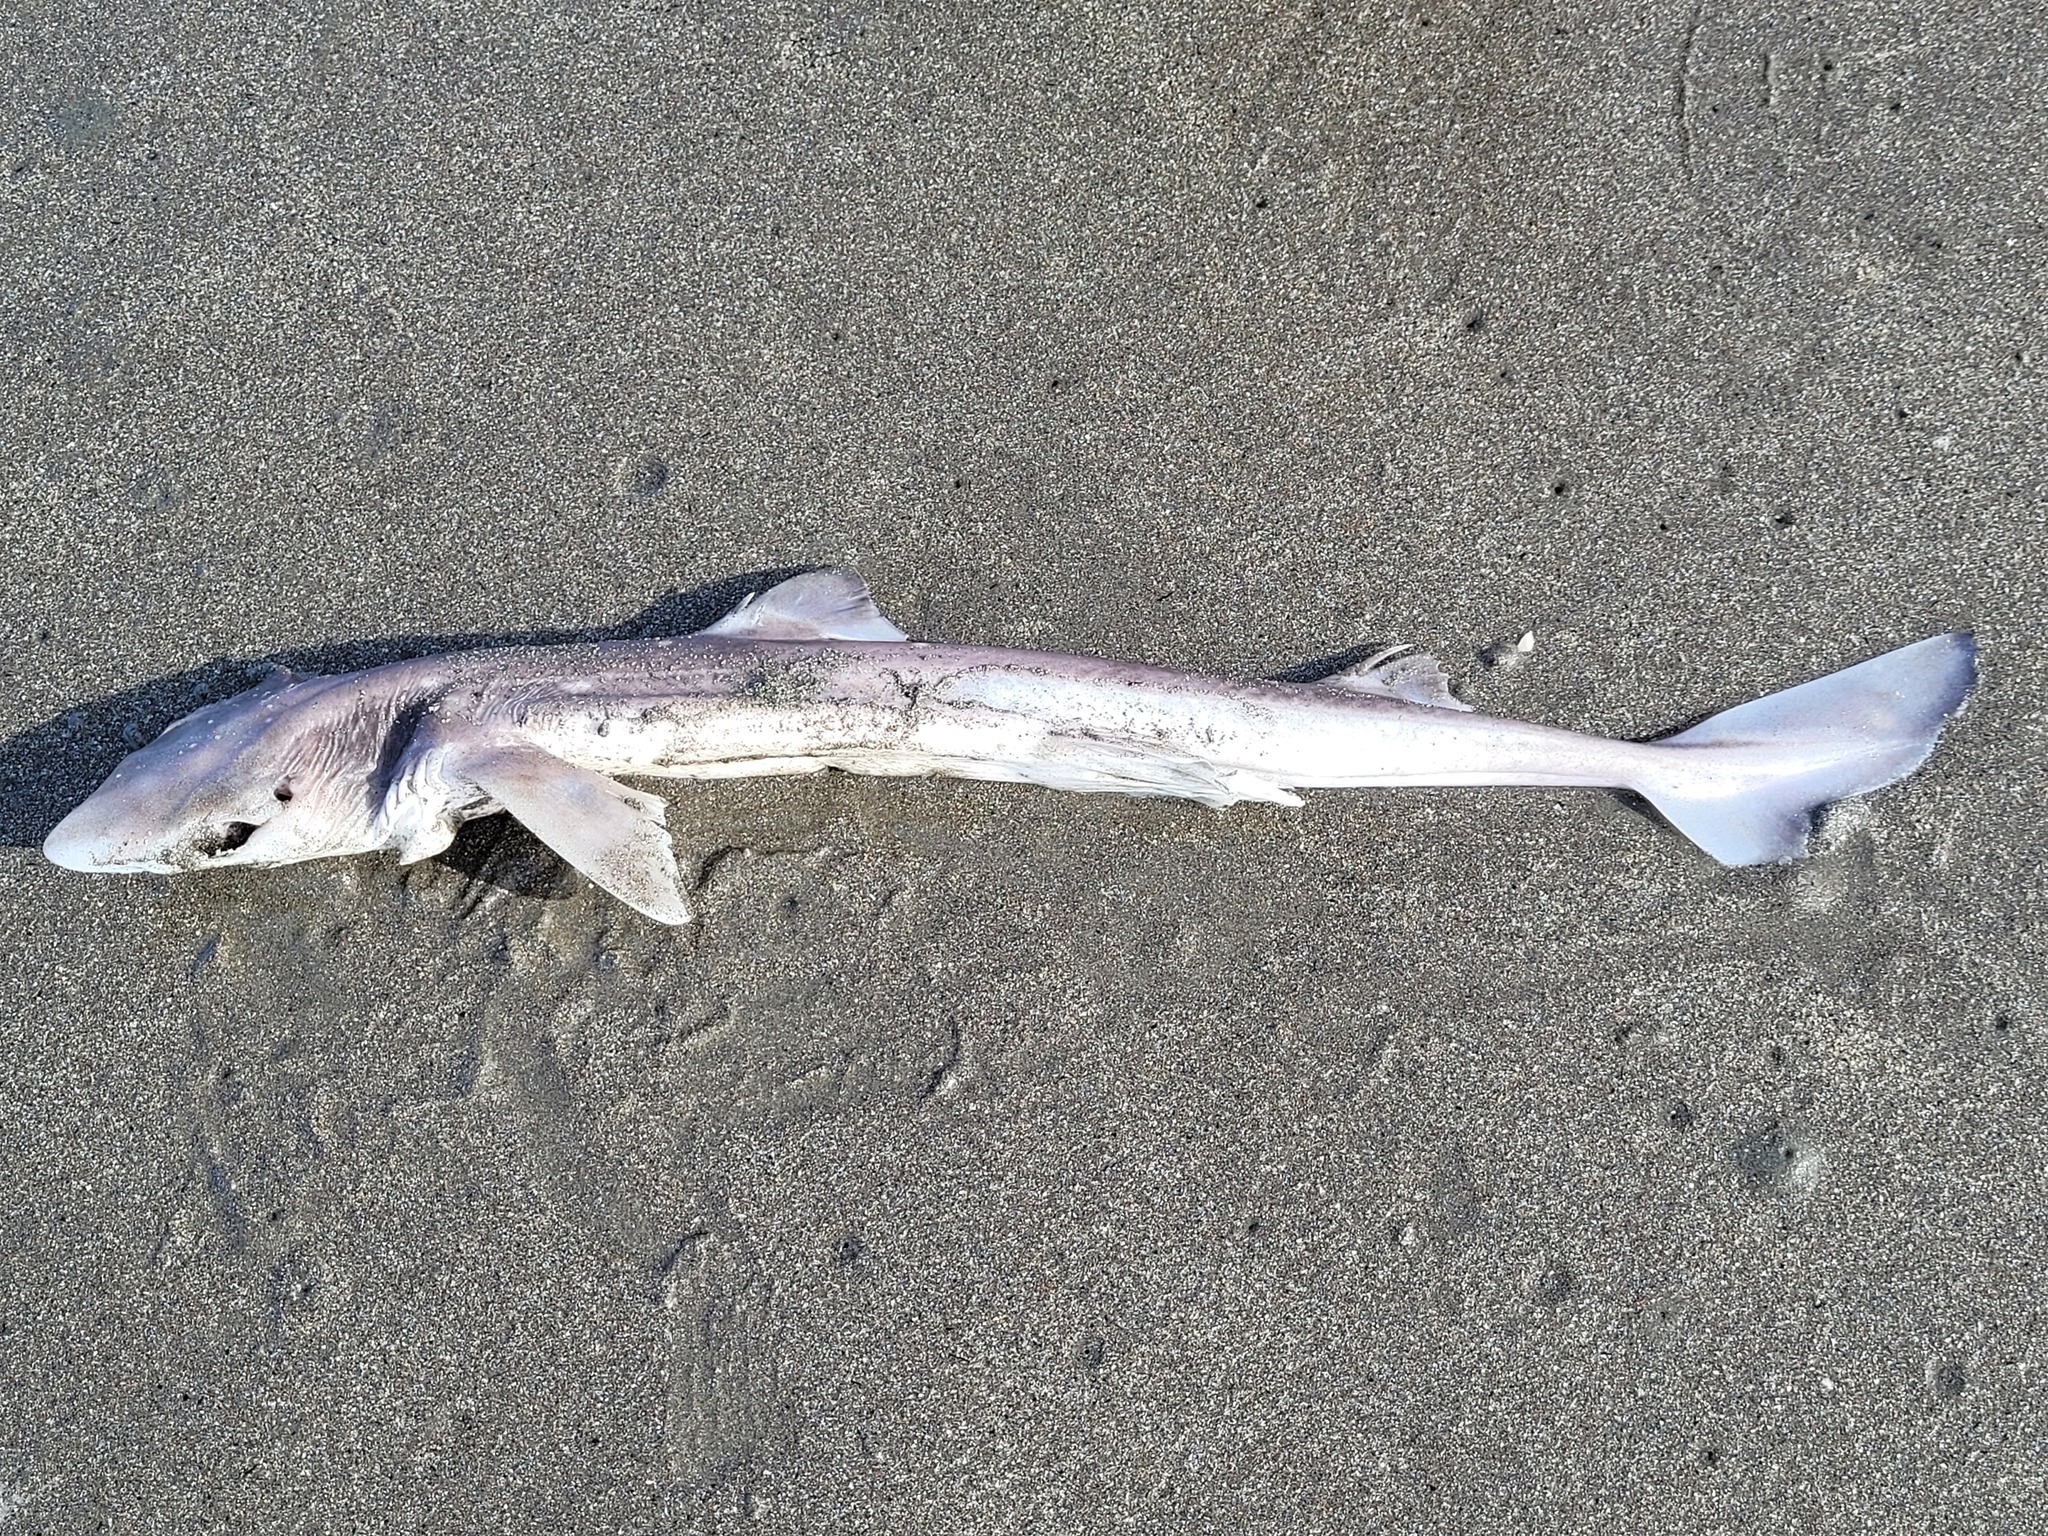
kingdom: Animalia
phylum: Chordata
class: Elasmobranchii
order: Squaliformes
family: Squalidae
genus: Squalus
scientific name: Squalus acanthias
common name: Spurdog
